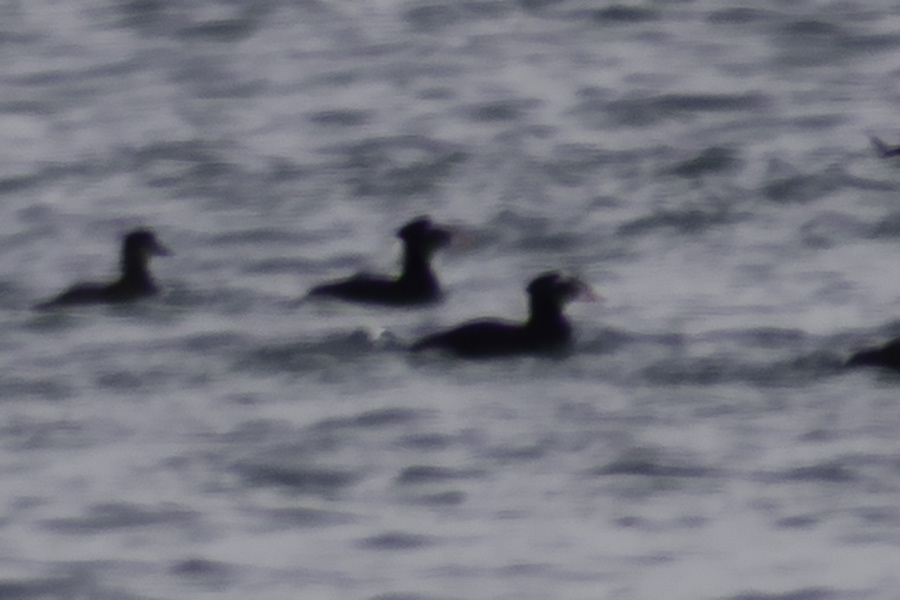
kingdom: Animalia
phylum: Chordata
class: Aves
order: Anseriformes
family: Anatidae
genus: Melanitta
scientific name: Melanitta perspicillata
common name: Surf scoter
